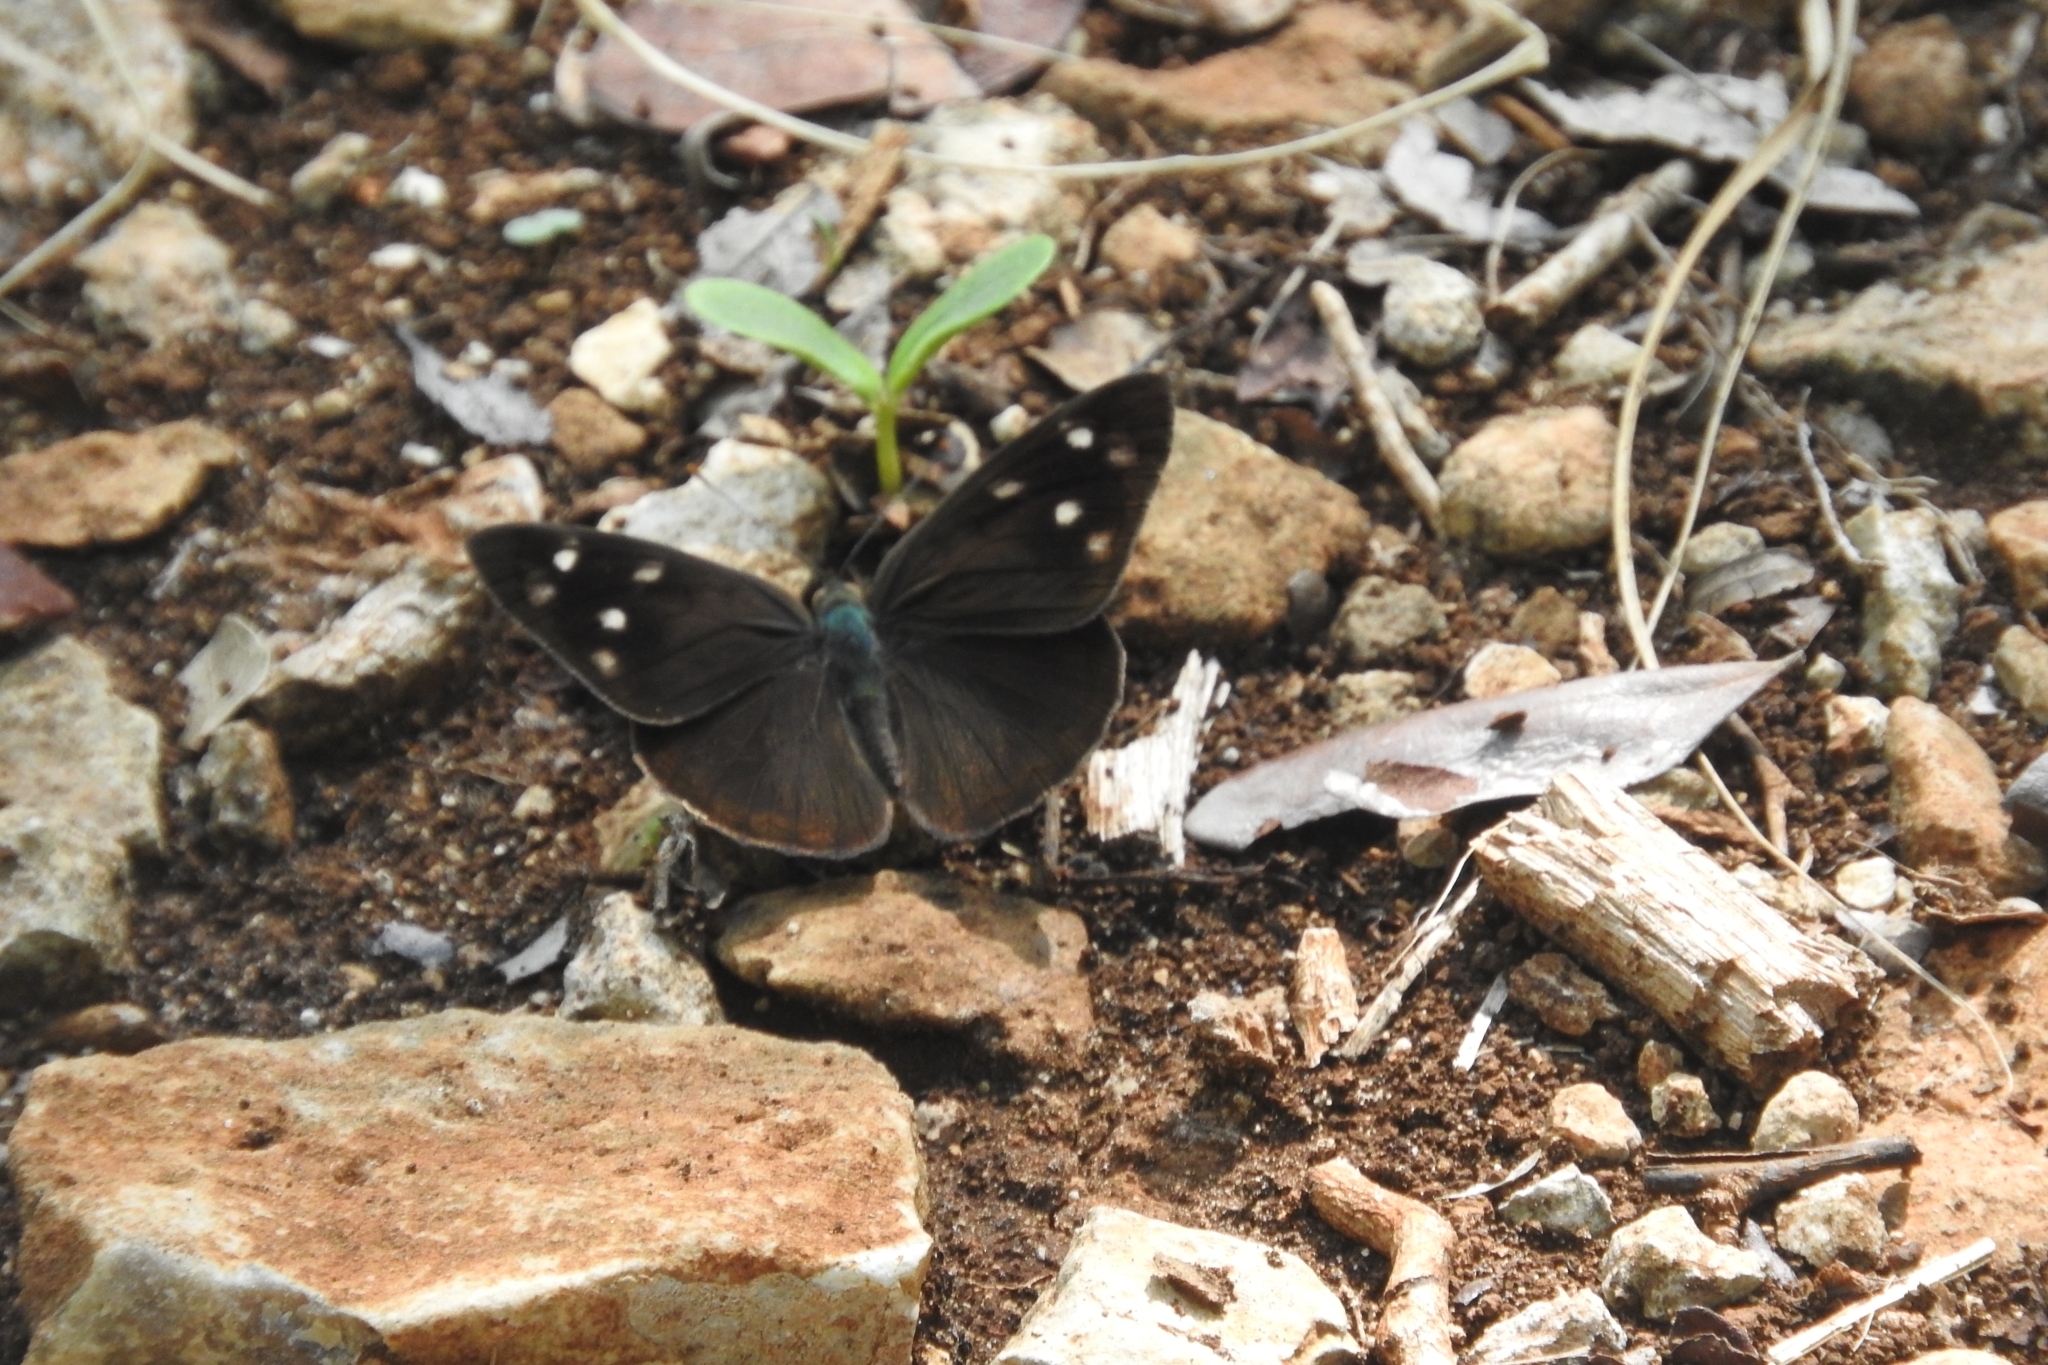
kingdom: Animalia
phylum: Arthropoda
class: Insecta
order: Lepidoptera
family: Nymphalidae
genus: Eunica
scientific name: Eunica monima
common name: Dingy purplewing
